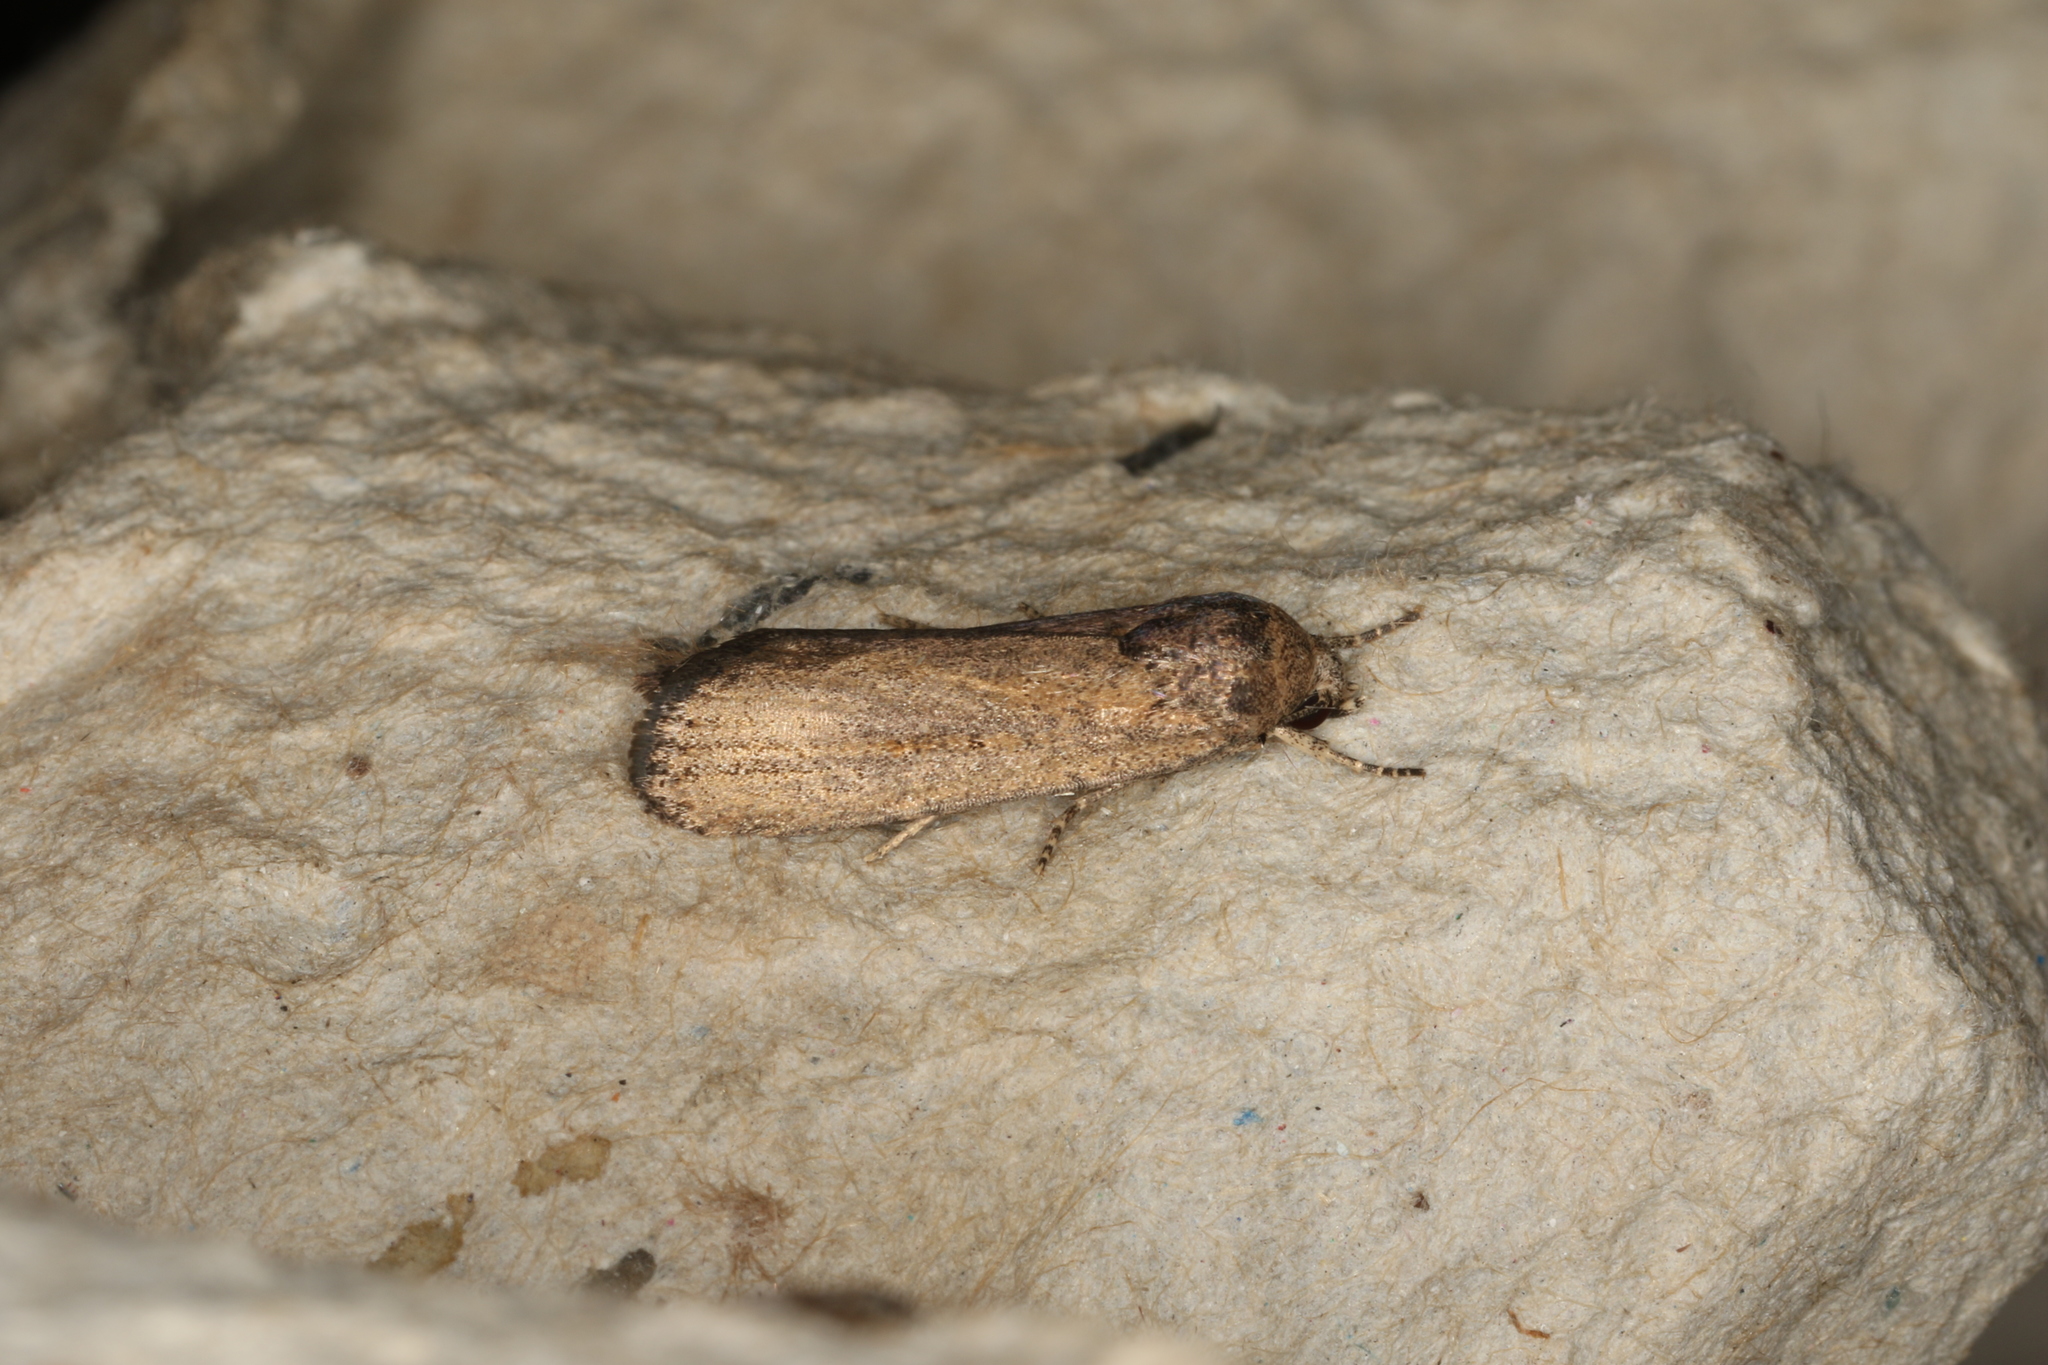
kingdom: Animalia
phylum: Arthropoda
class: Insecta
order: Lepidoptera
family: Noctuidae
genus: Athetis
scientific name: Athetis tenuis
